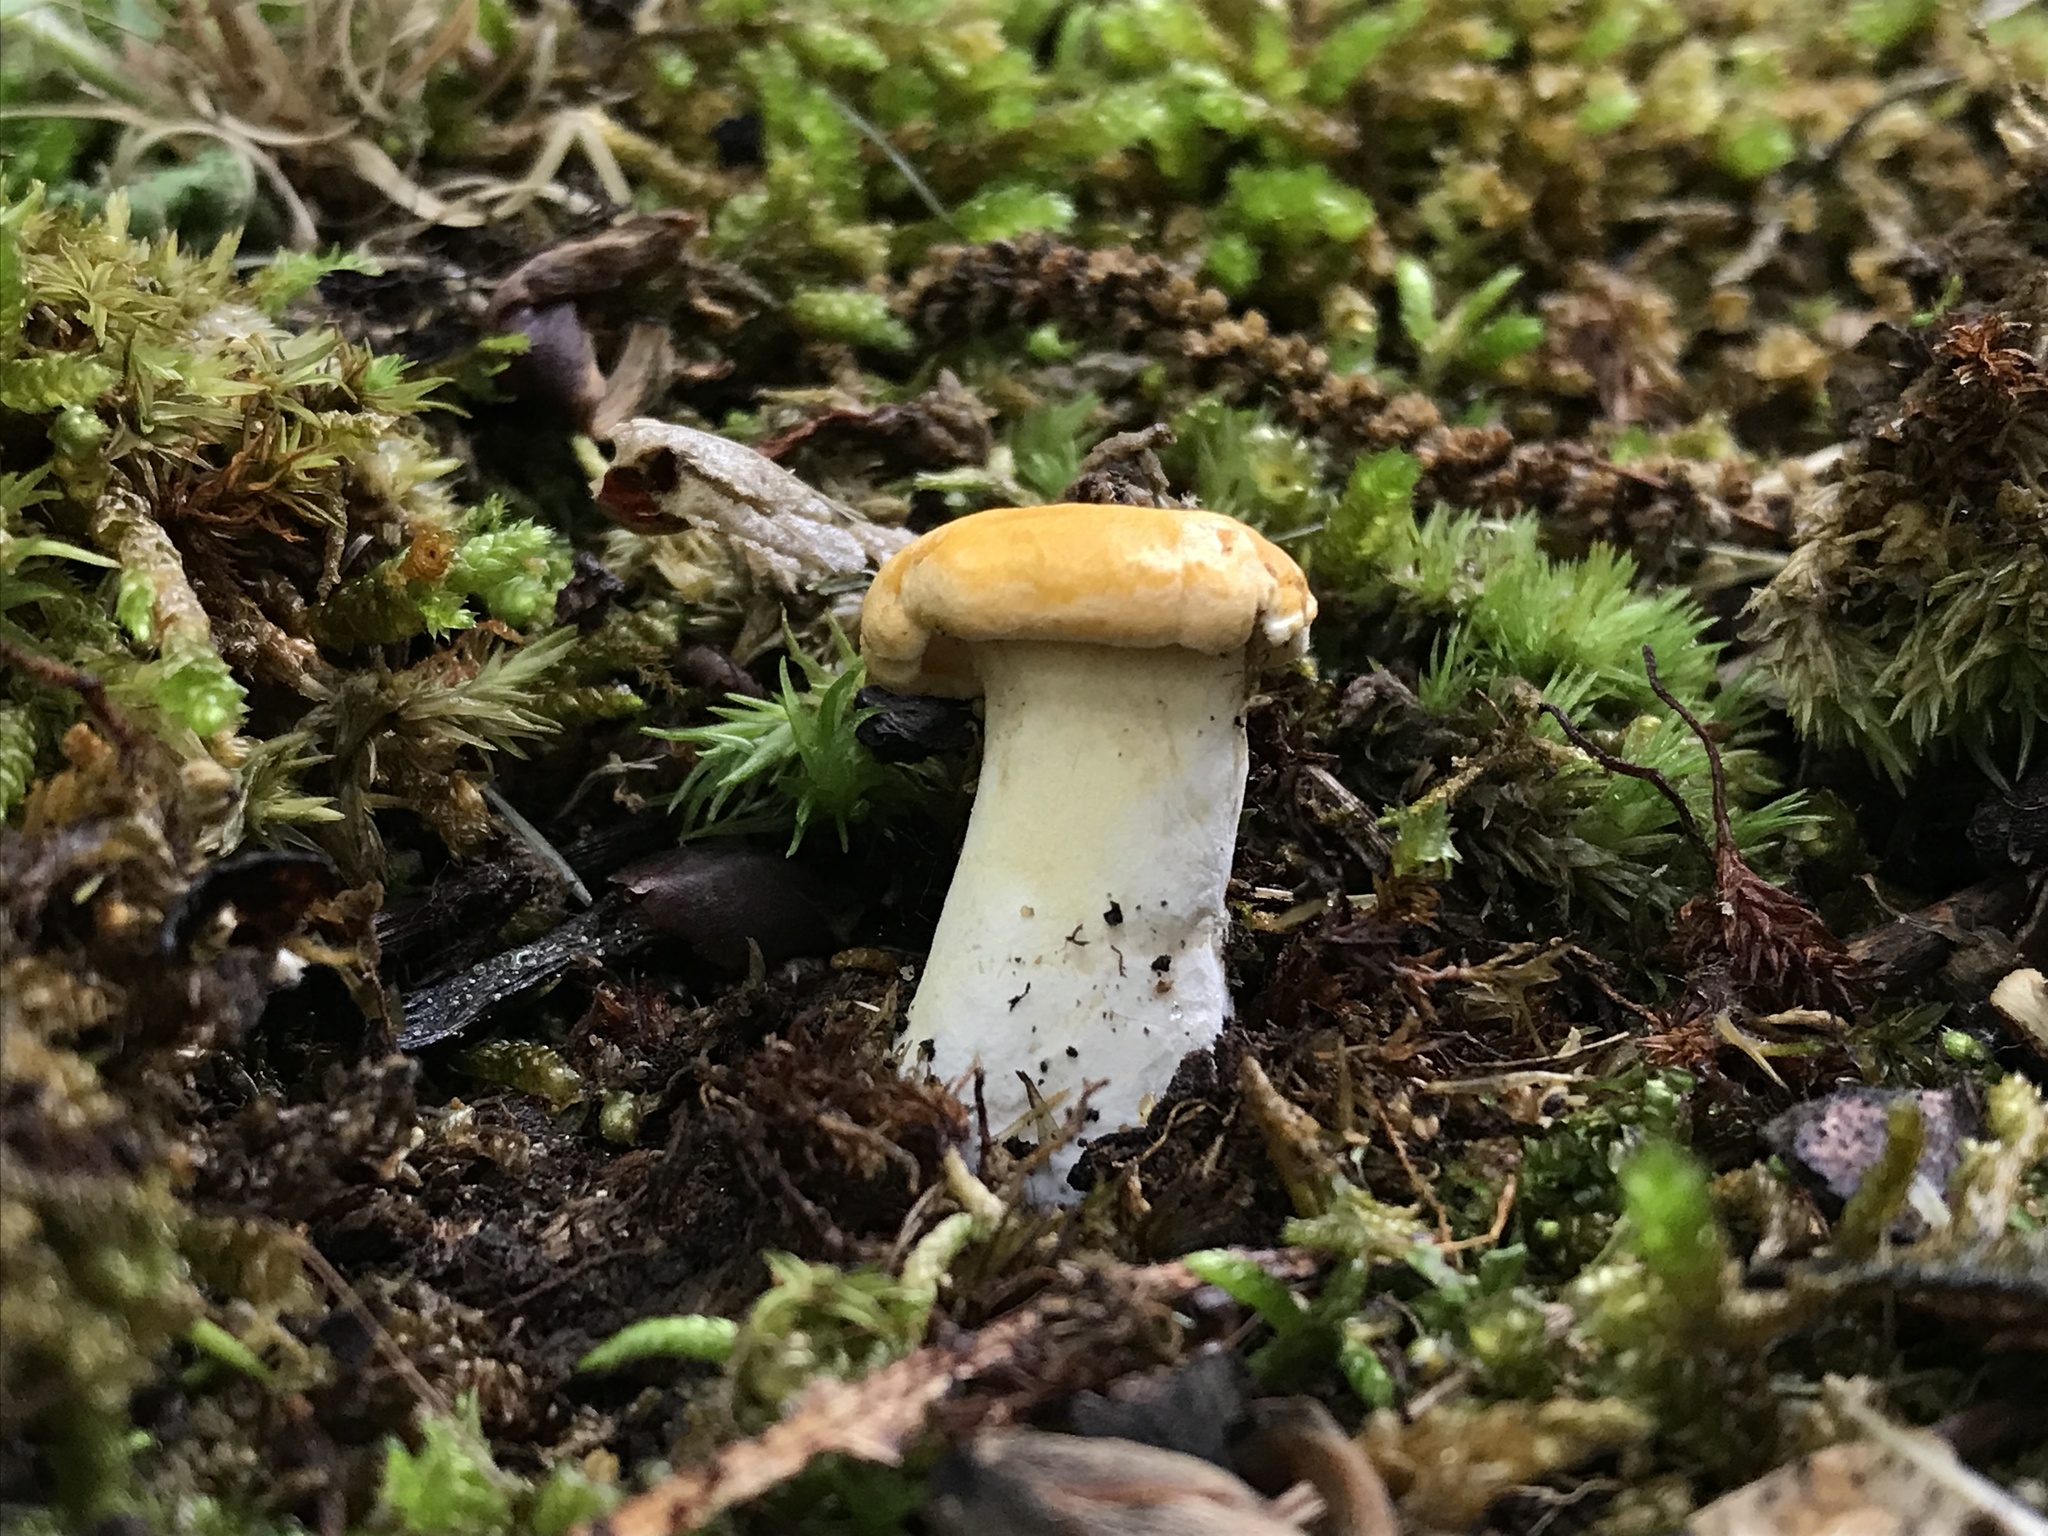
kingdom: Fungi
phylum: Basidiomycota
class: Agaricomycetes
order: Cantharellales
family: Hydnaceae
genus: Cantharellus
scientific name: Cantharellus flavolateritius
